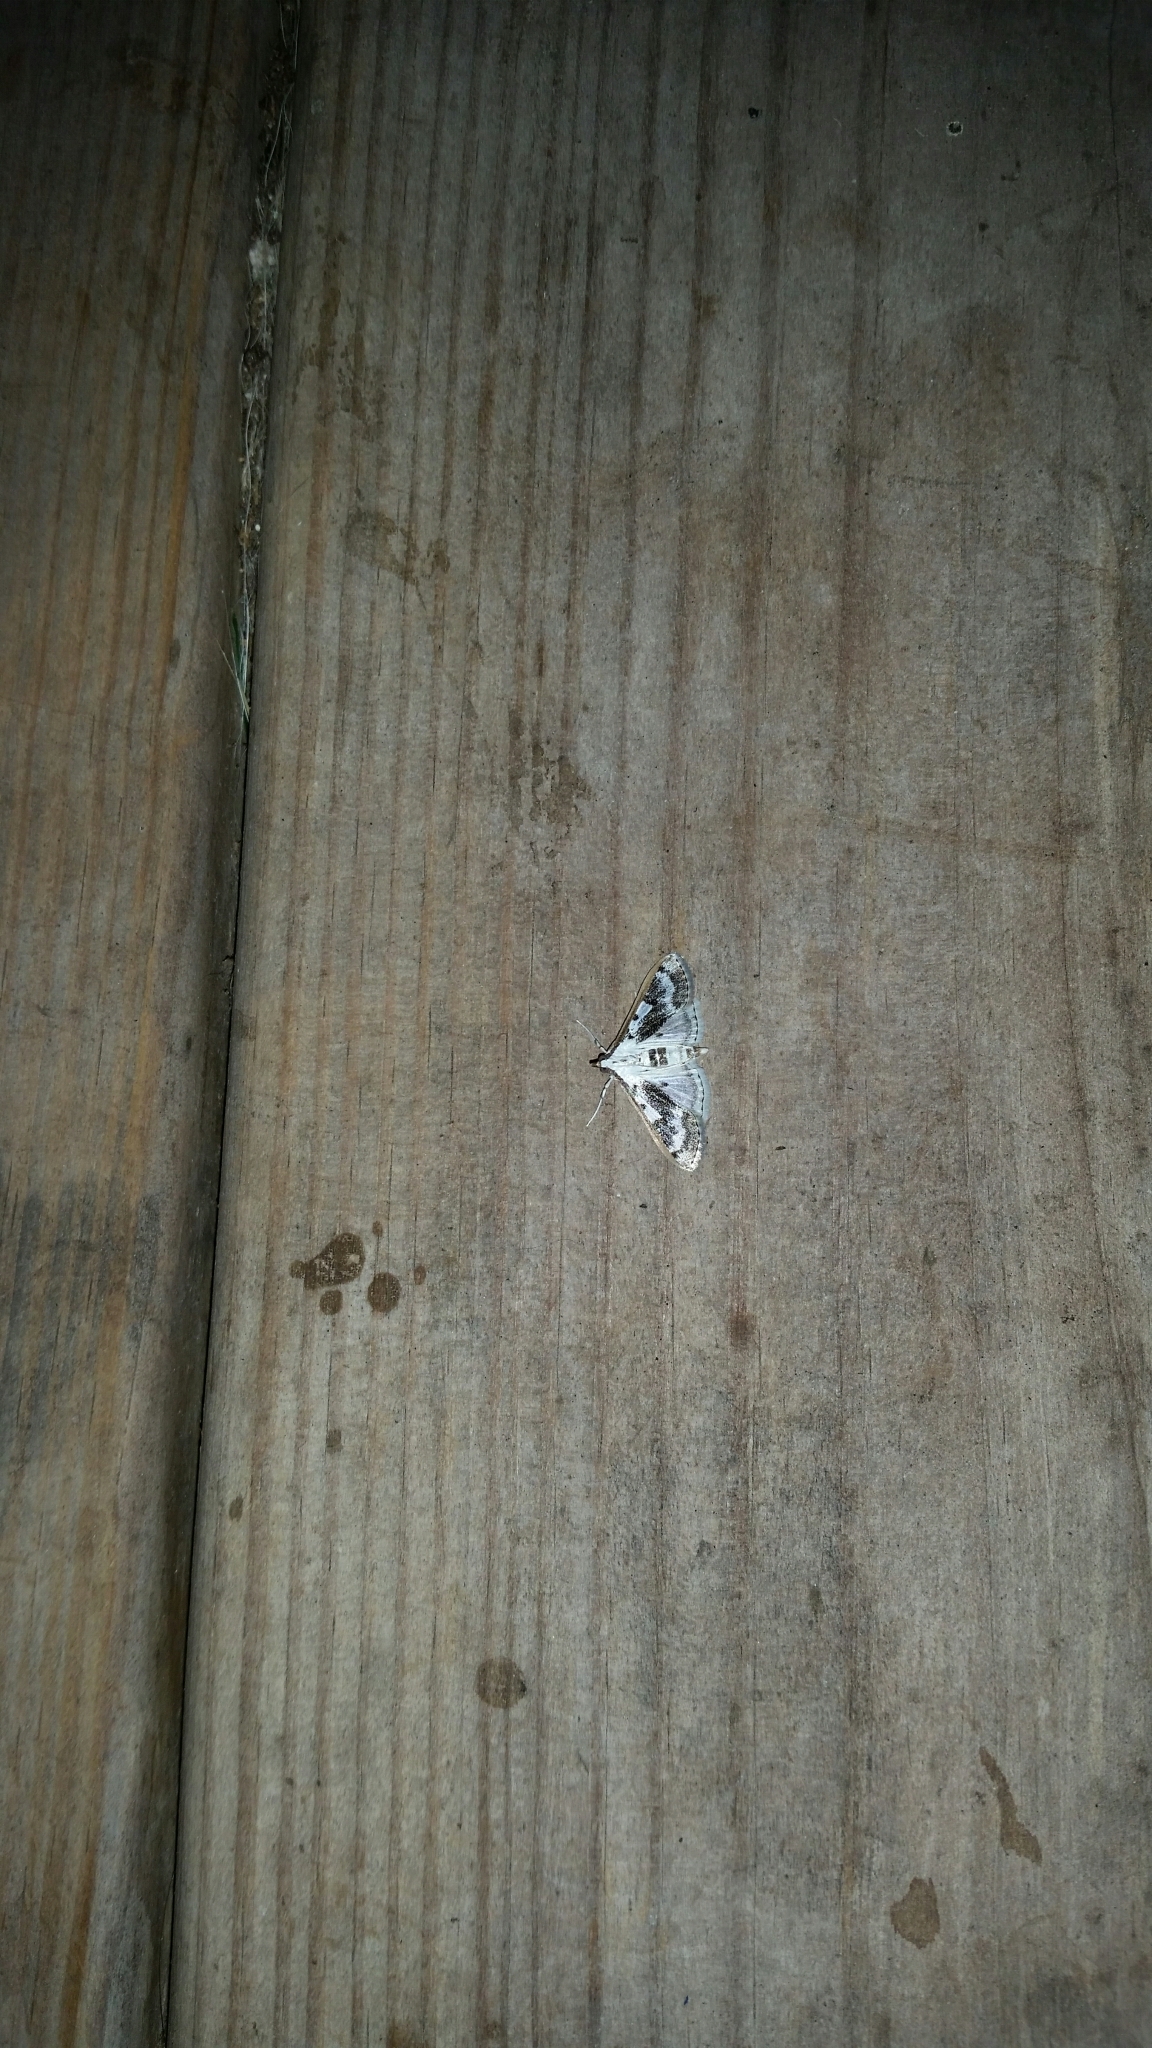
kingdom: Animalia
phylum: Arthropoda
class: Insecta
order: Lepidoptera
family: Crambidae
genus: Palpita
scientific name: Palpita gracilalis
